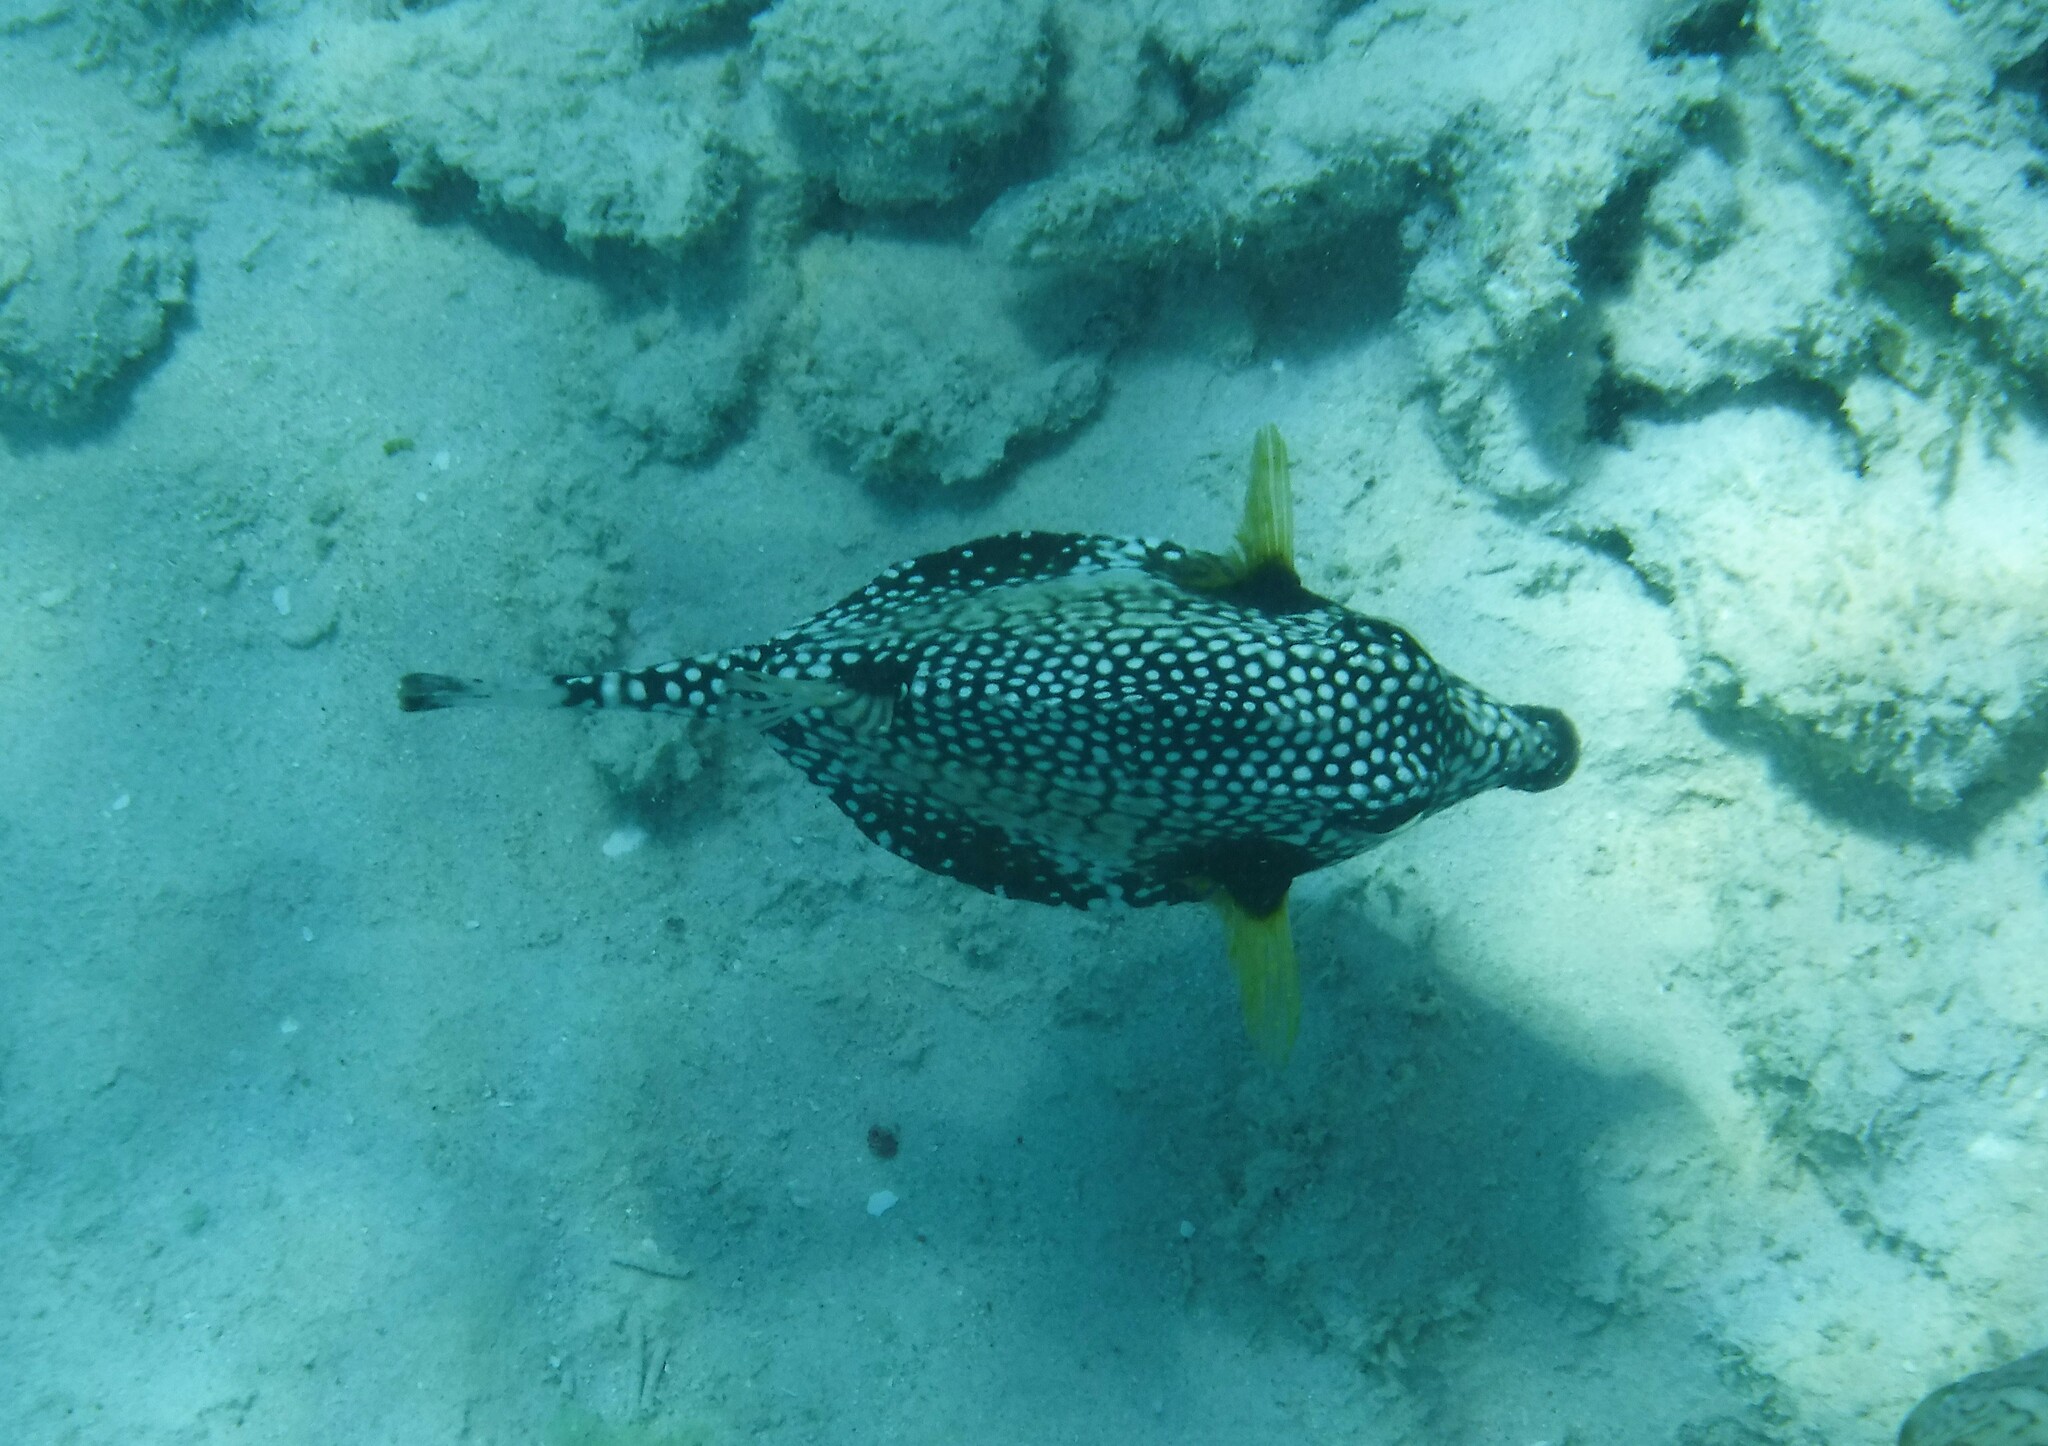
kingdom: Animalia
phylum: Chordata
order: Tetraodontiformes
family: Ostraciidae
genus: Lactophrys
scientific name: Lactophrys triqueter
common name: Smooth trunkfish
